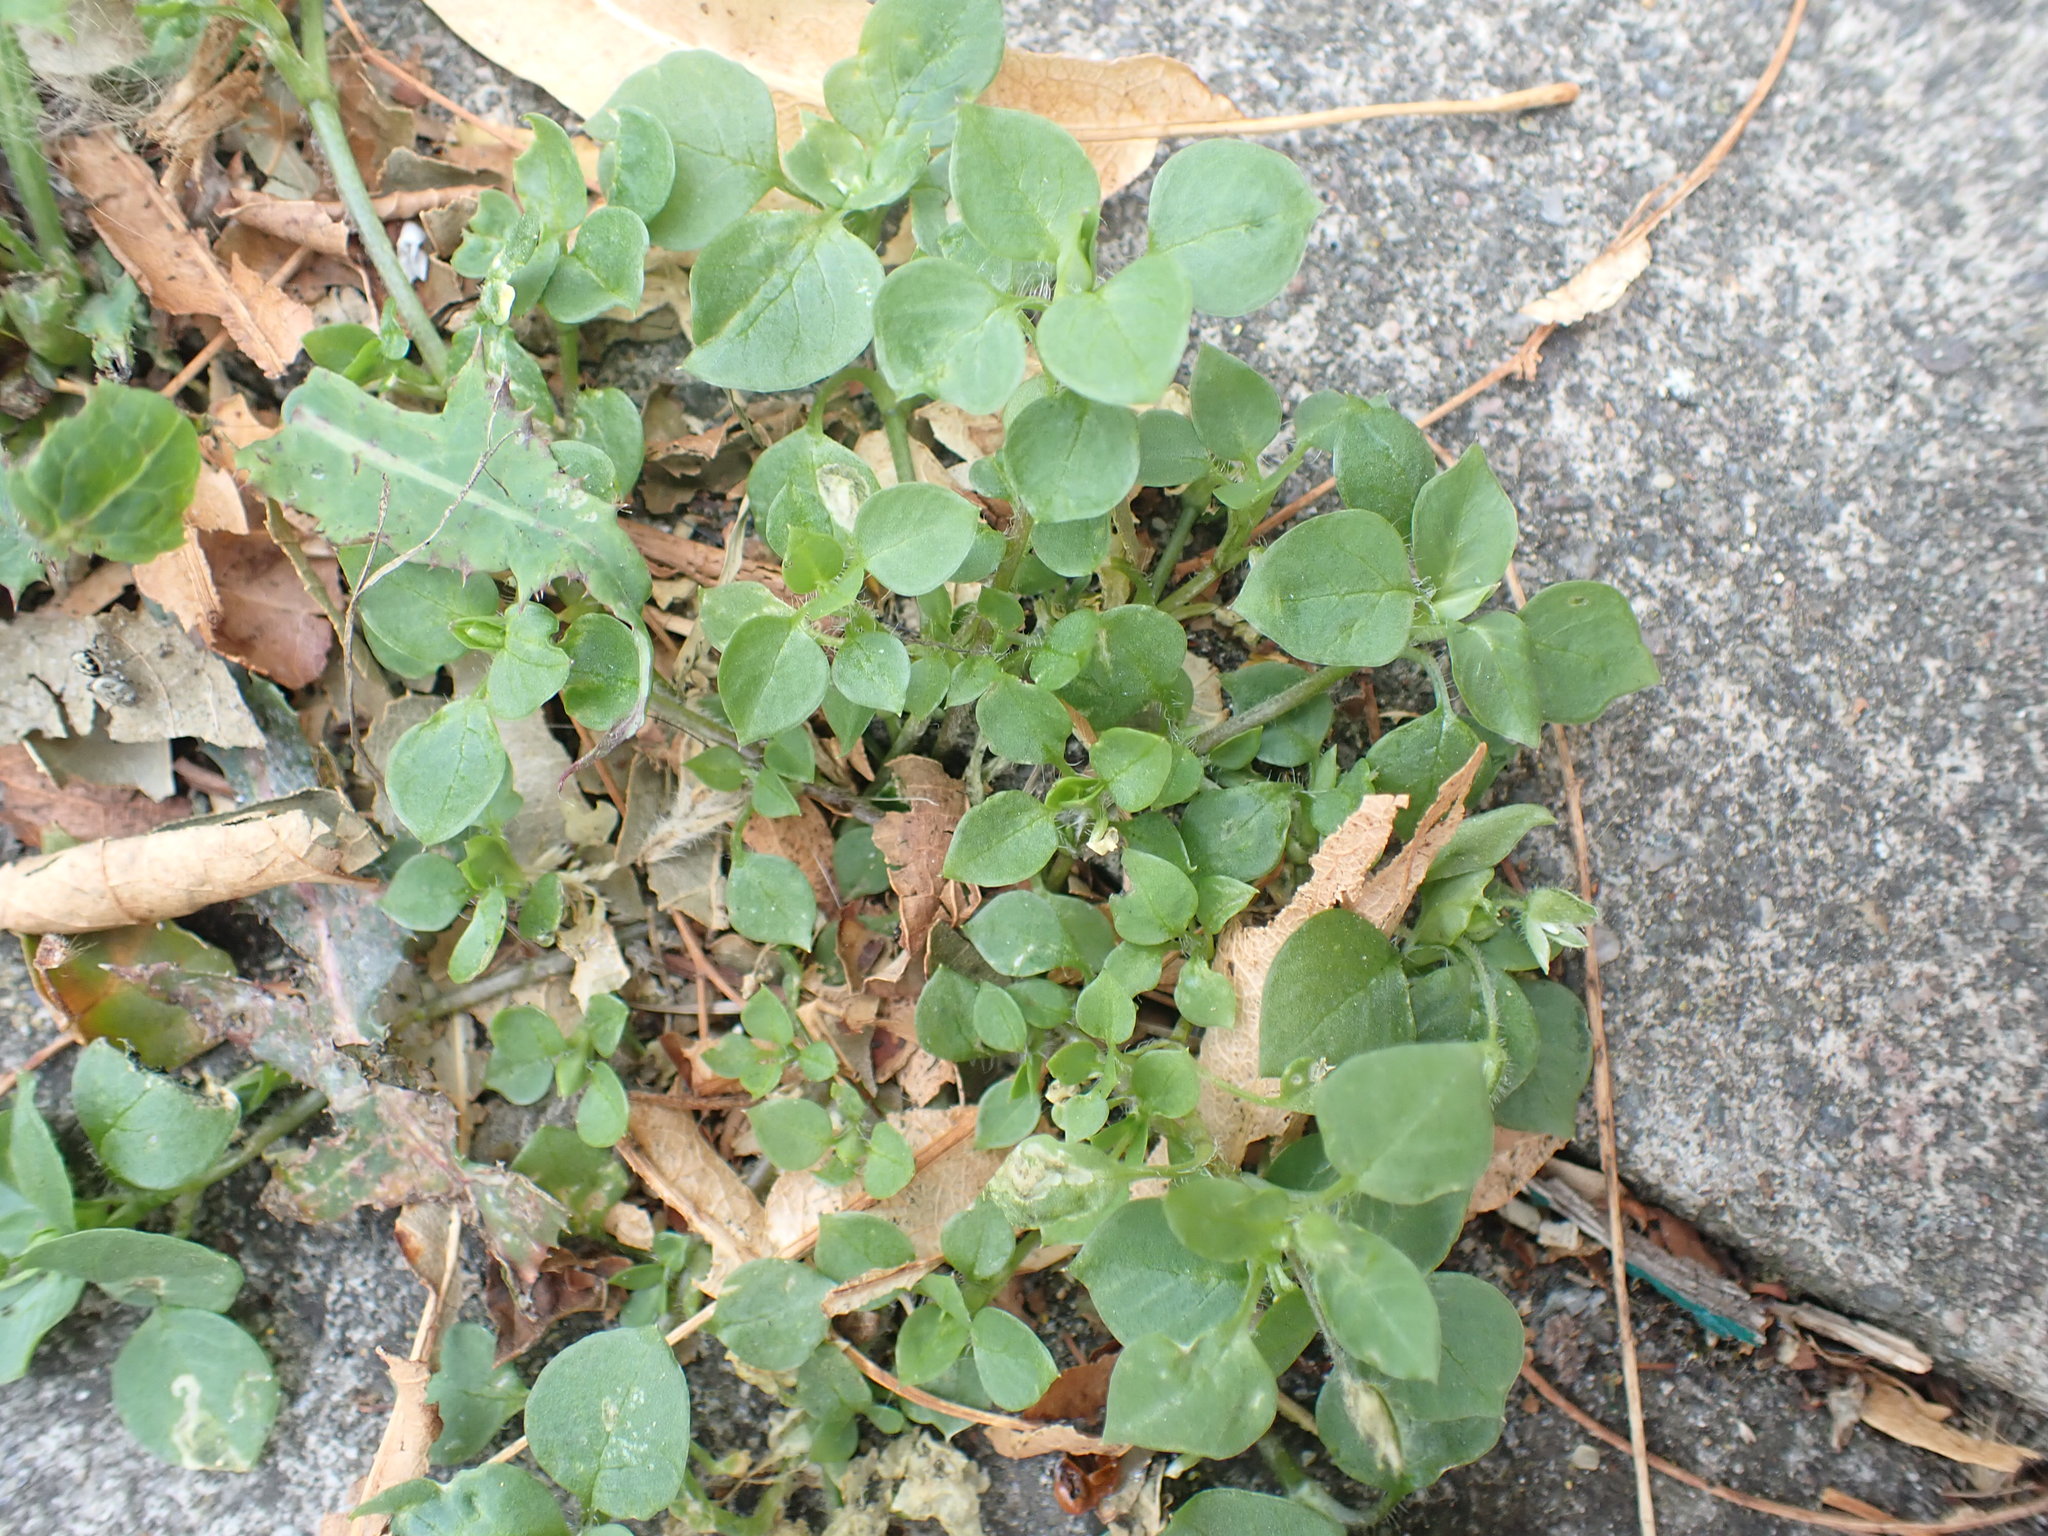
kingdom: Plantae
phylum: Tracheophyta
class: Magnoliopsida
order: Caryophyllales
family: Caryophyllaceae
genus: Stellaria
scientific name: Stellaria media
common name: Common chickweed
